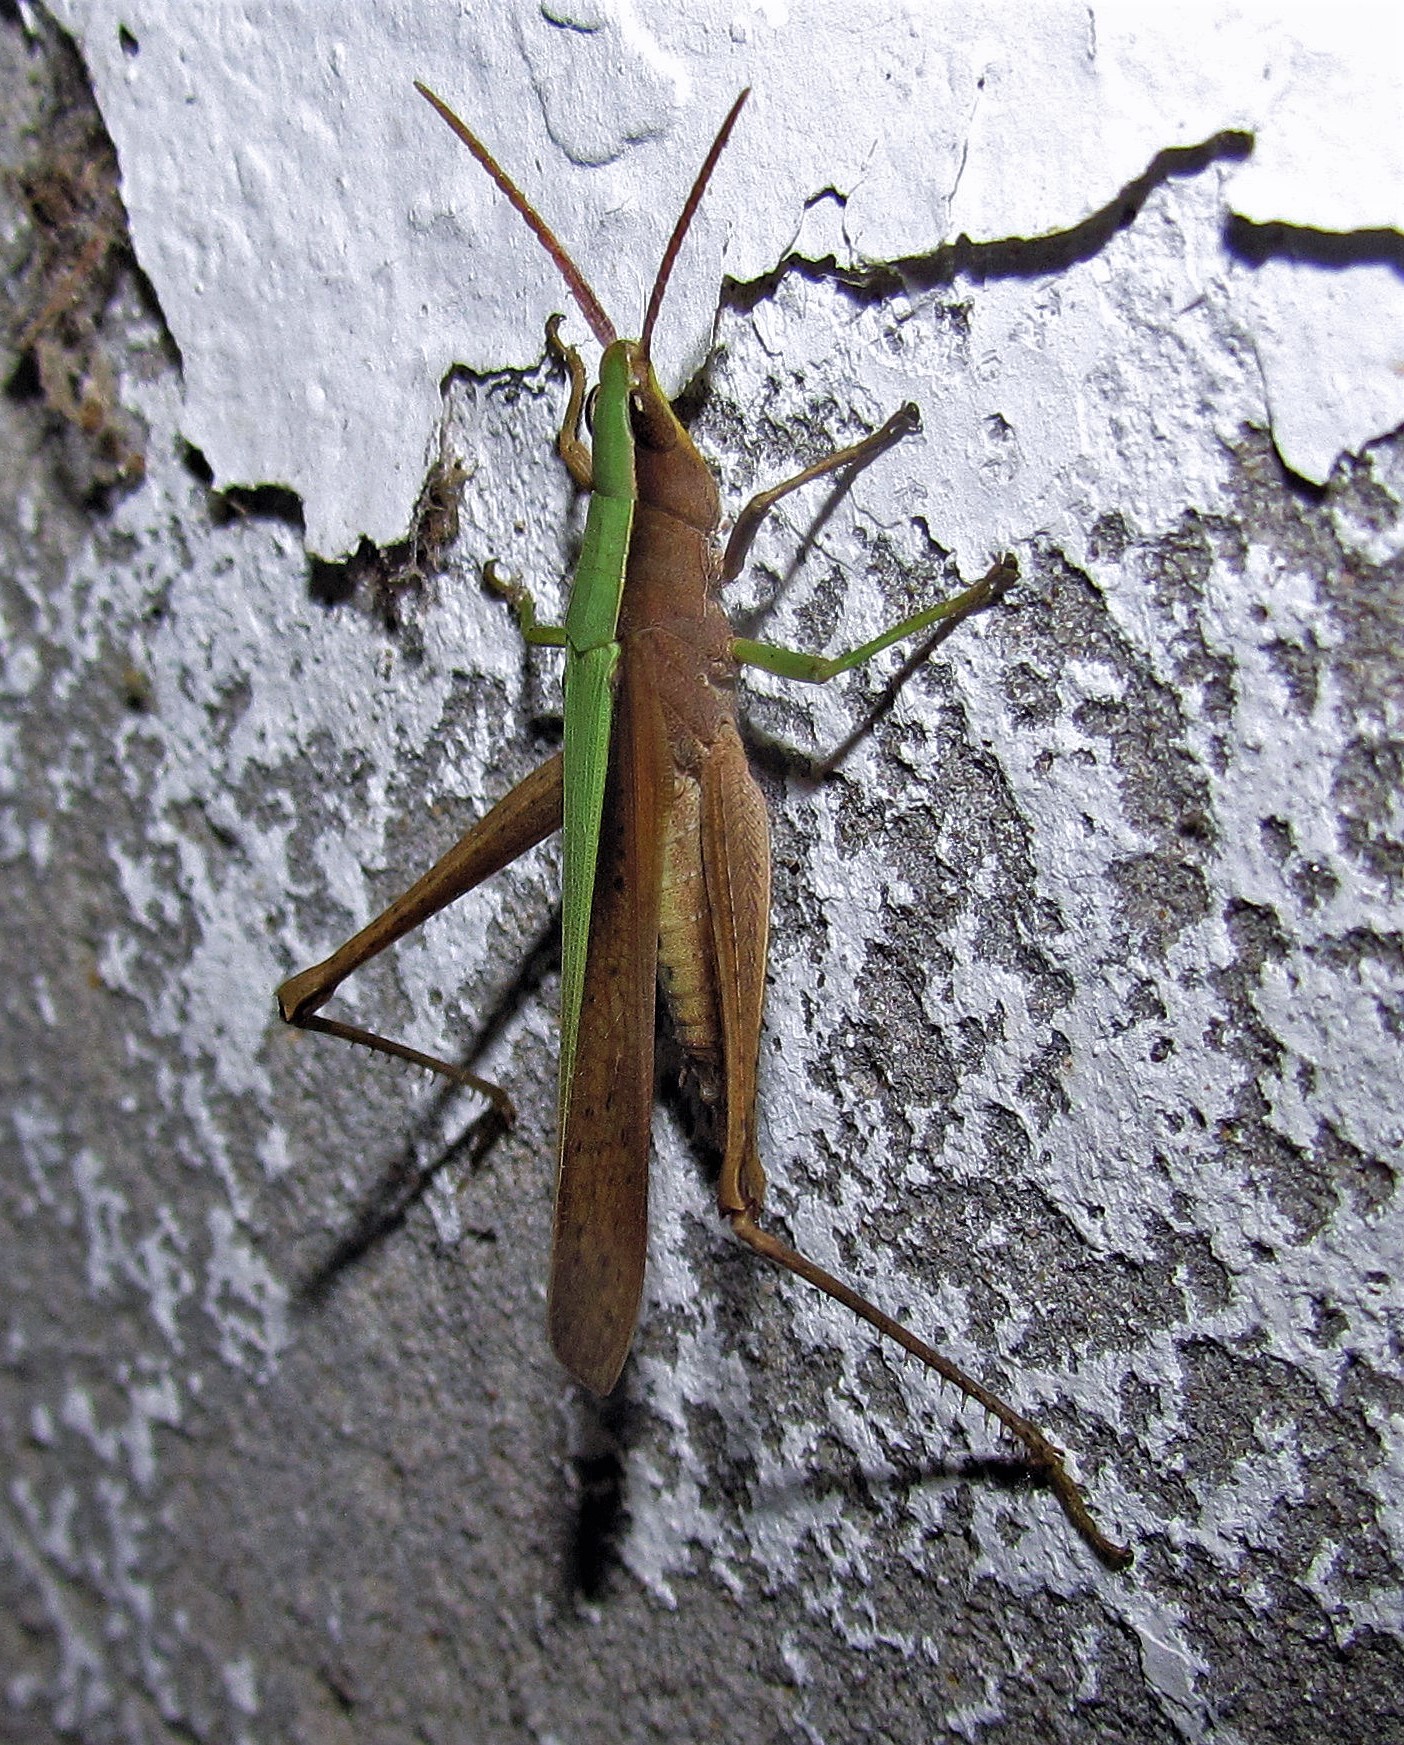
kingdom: Animalia
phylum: Arthropoda
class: Insecta
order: Orthoptera
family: Acrididae
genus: Metaleptea
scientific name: Metaleptea adspersa
